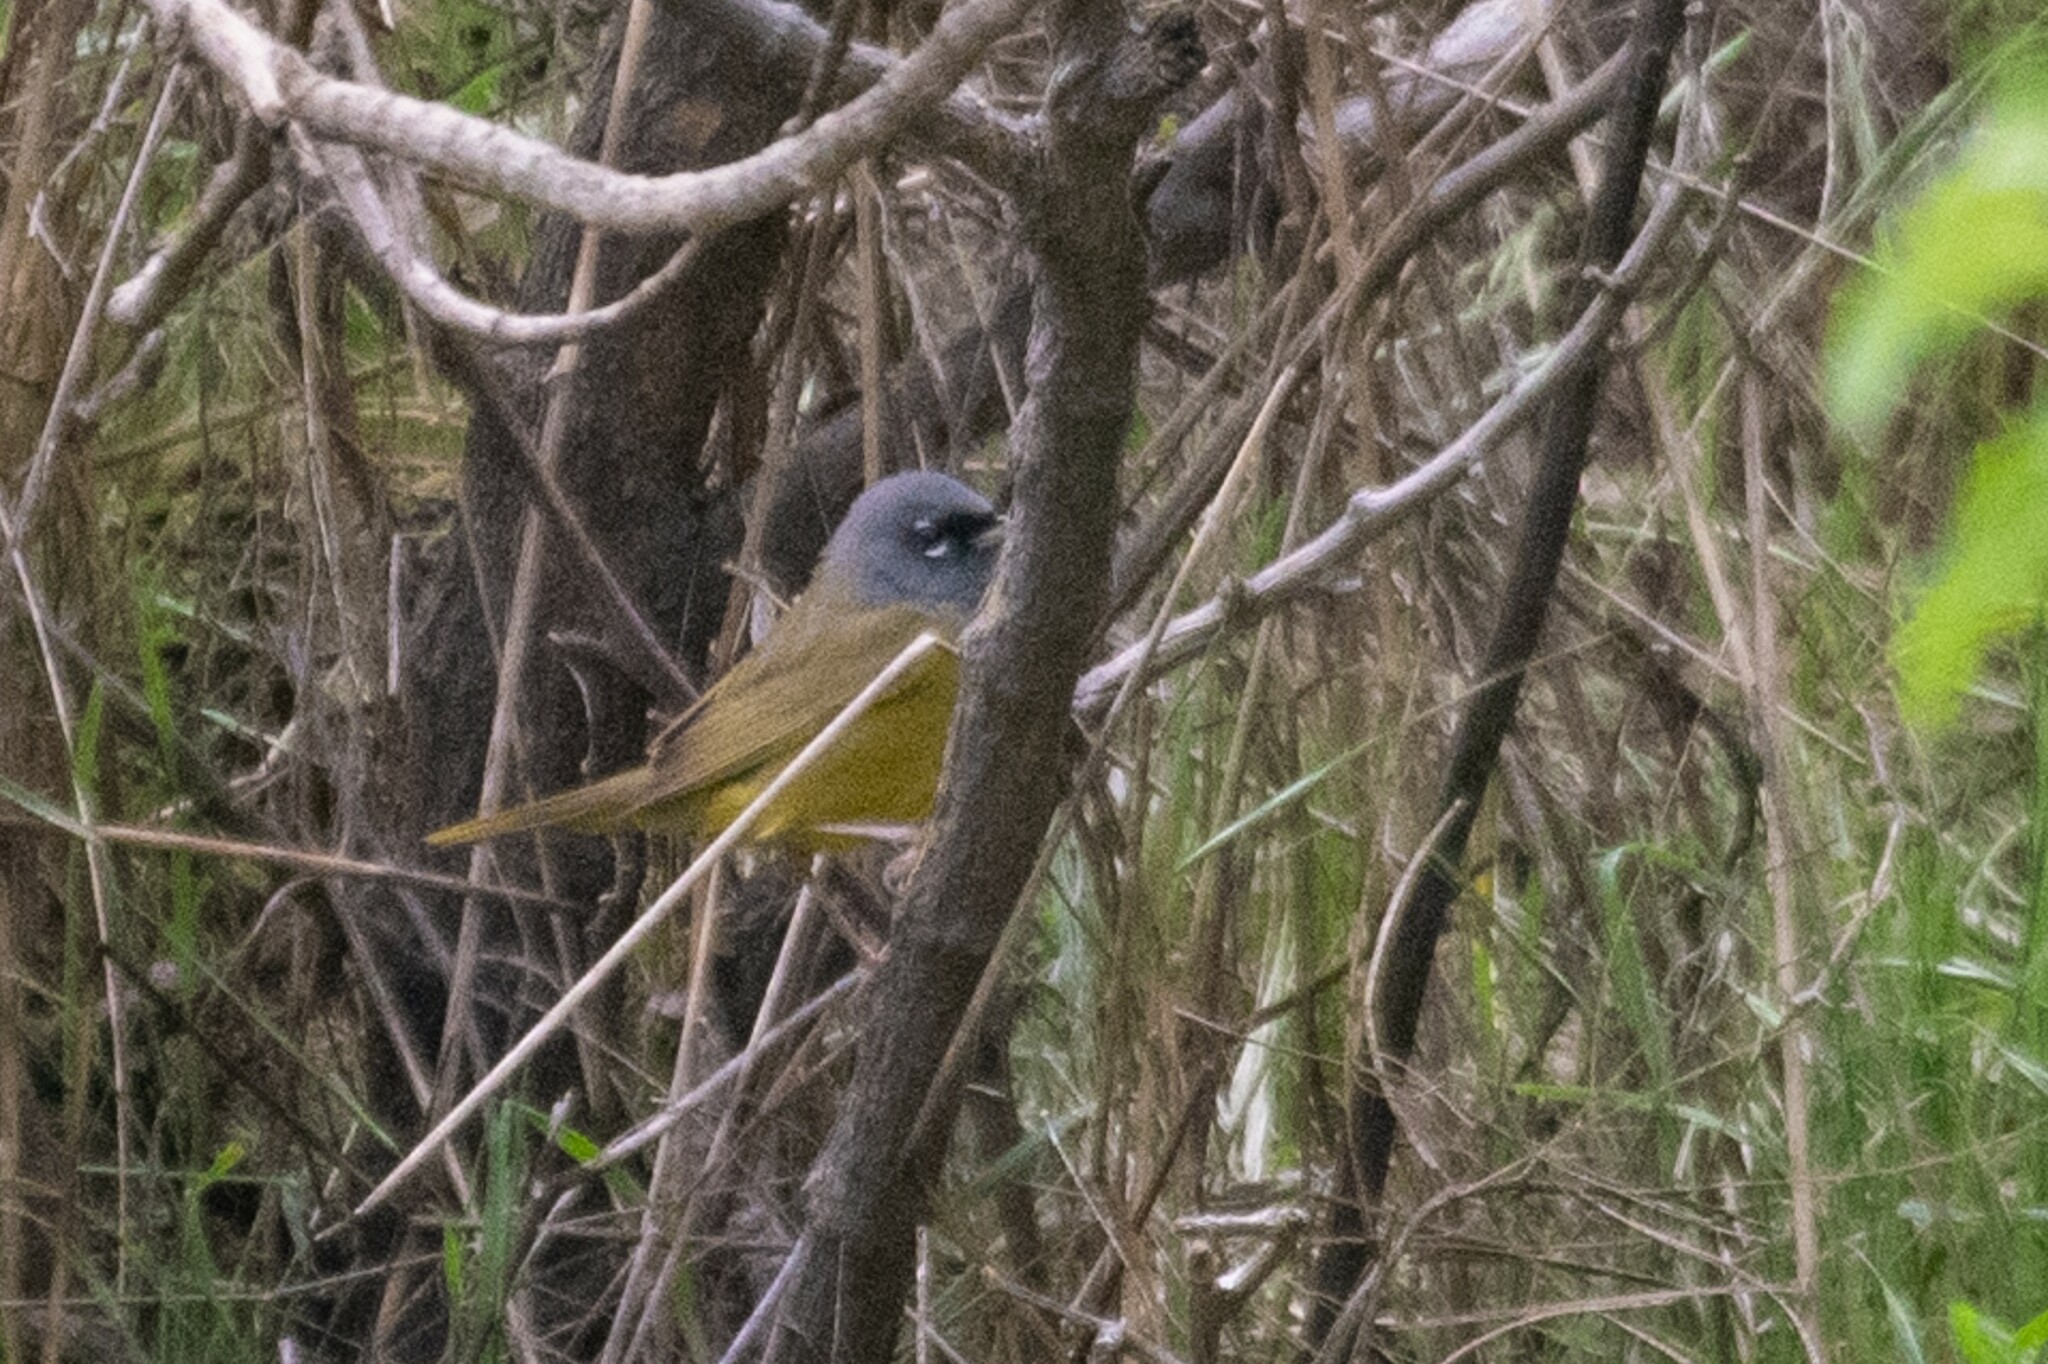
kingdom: Animalia
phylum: Chordata
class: Aves
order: Passeriformes
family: Parulidae
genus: Geothlypis
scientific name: Geothlypis tolmiei
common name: Macgillivray's warbler
